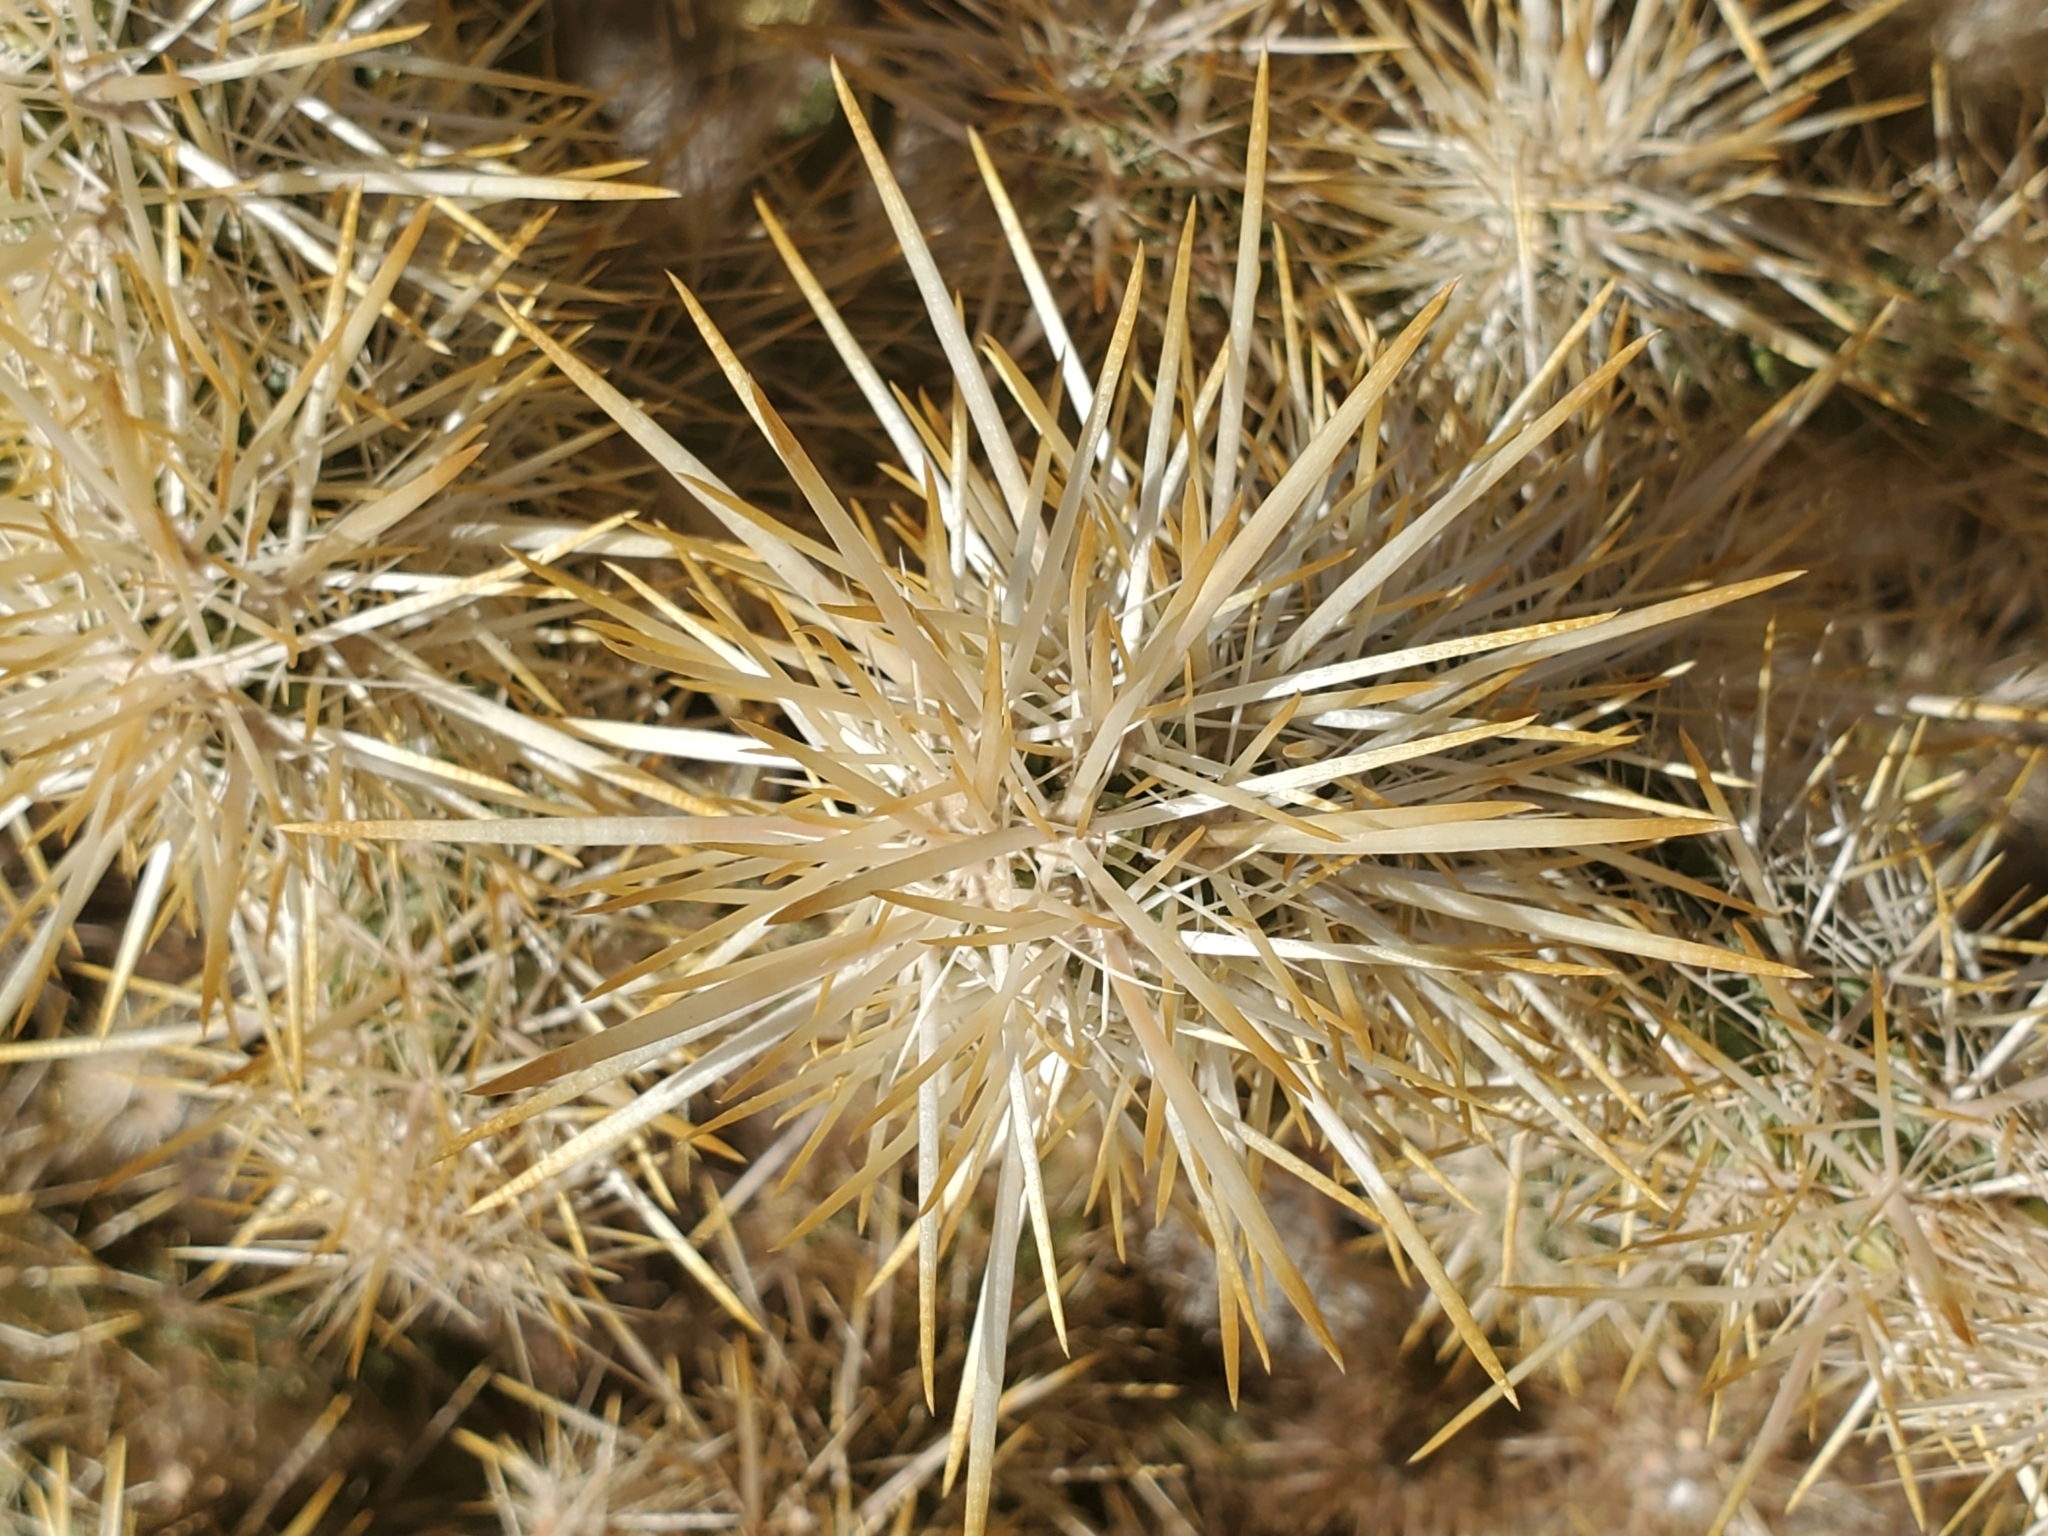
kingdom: Plantae
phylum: Tracheophyta
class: Magnoliopsida
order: Caryophyllales
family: Cactaceae
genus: Cylindropuntia
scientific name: Cylindropuntia echinocarpa
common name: Ground cholla
